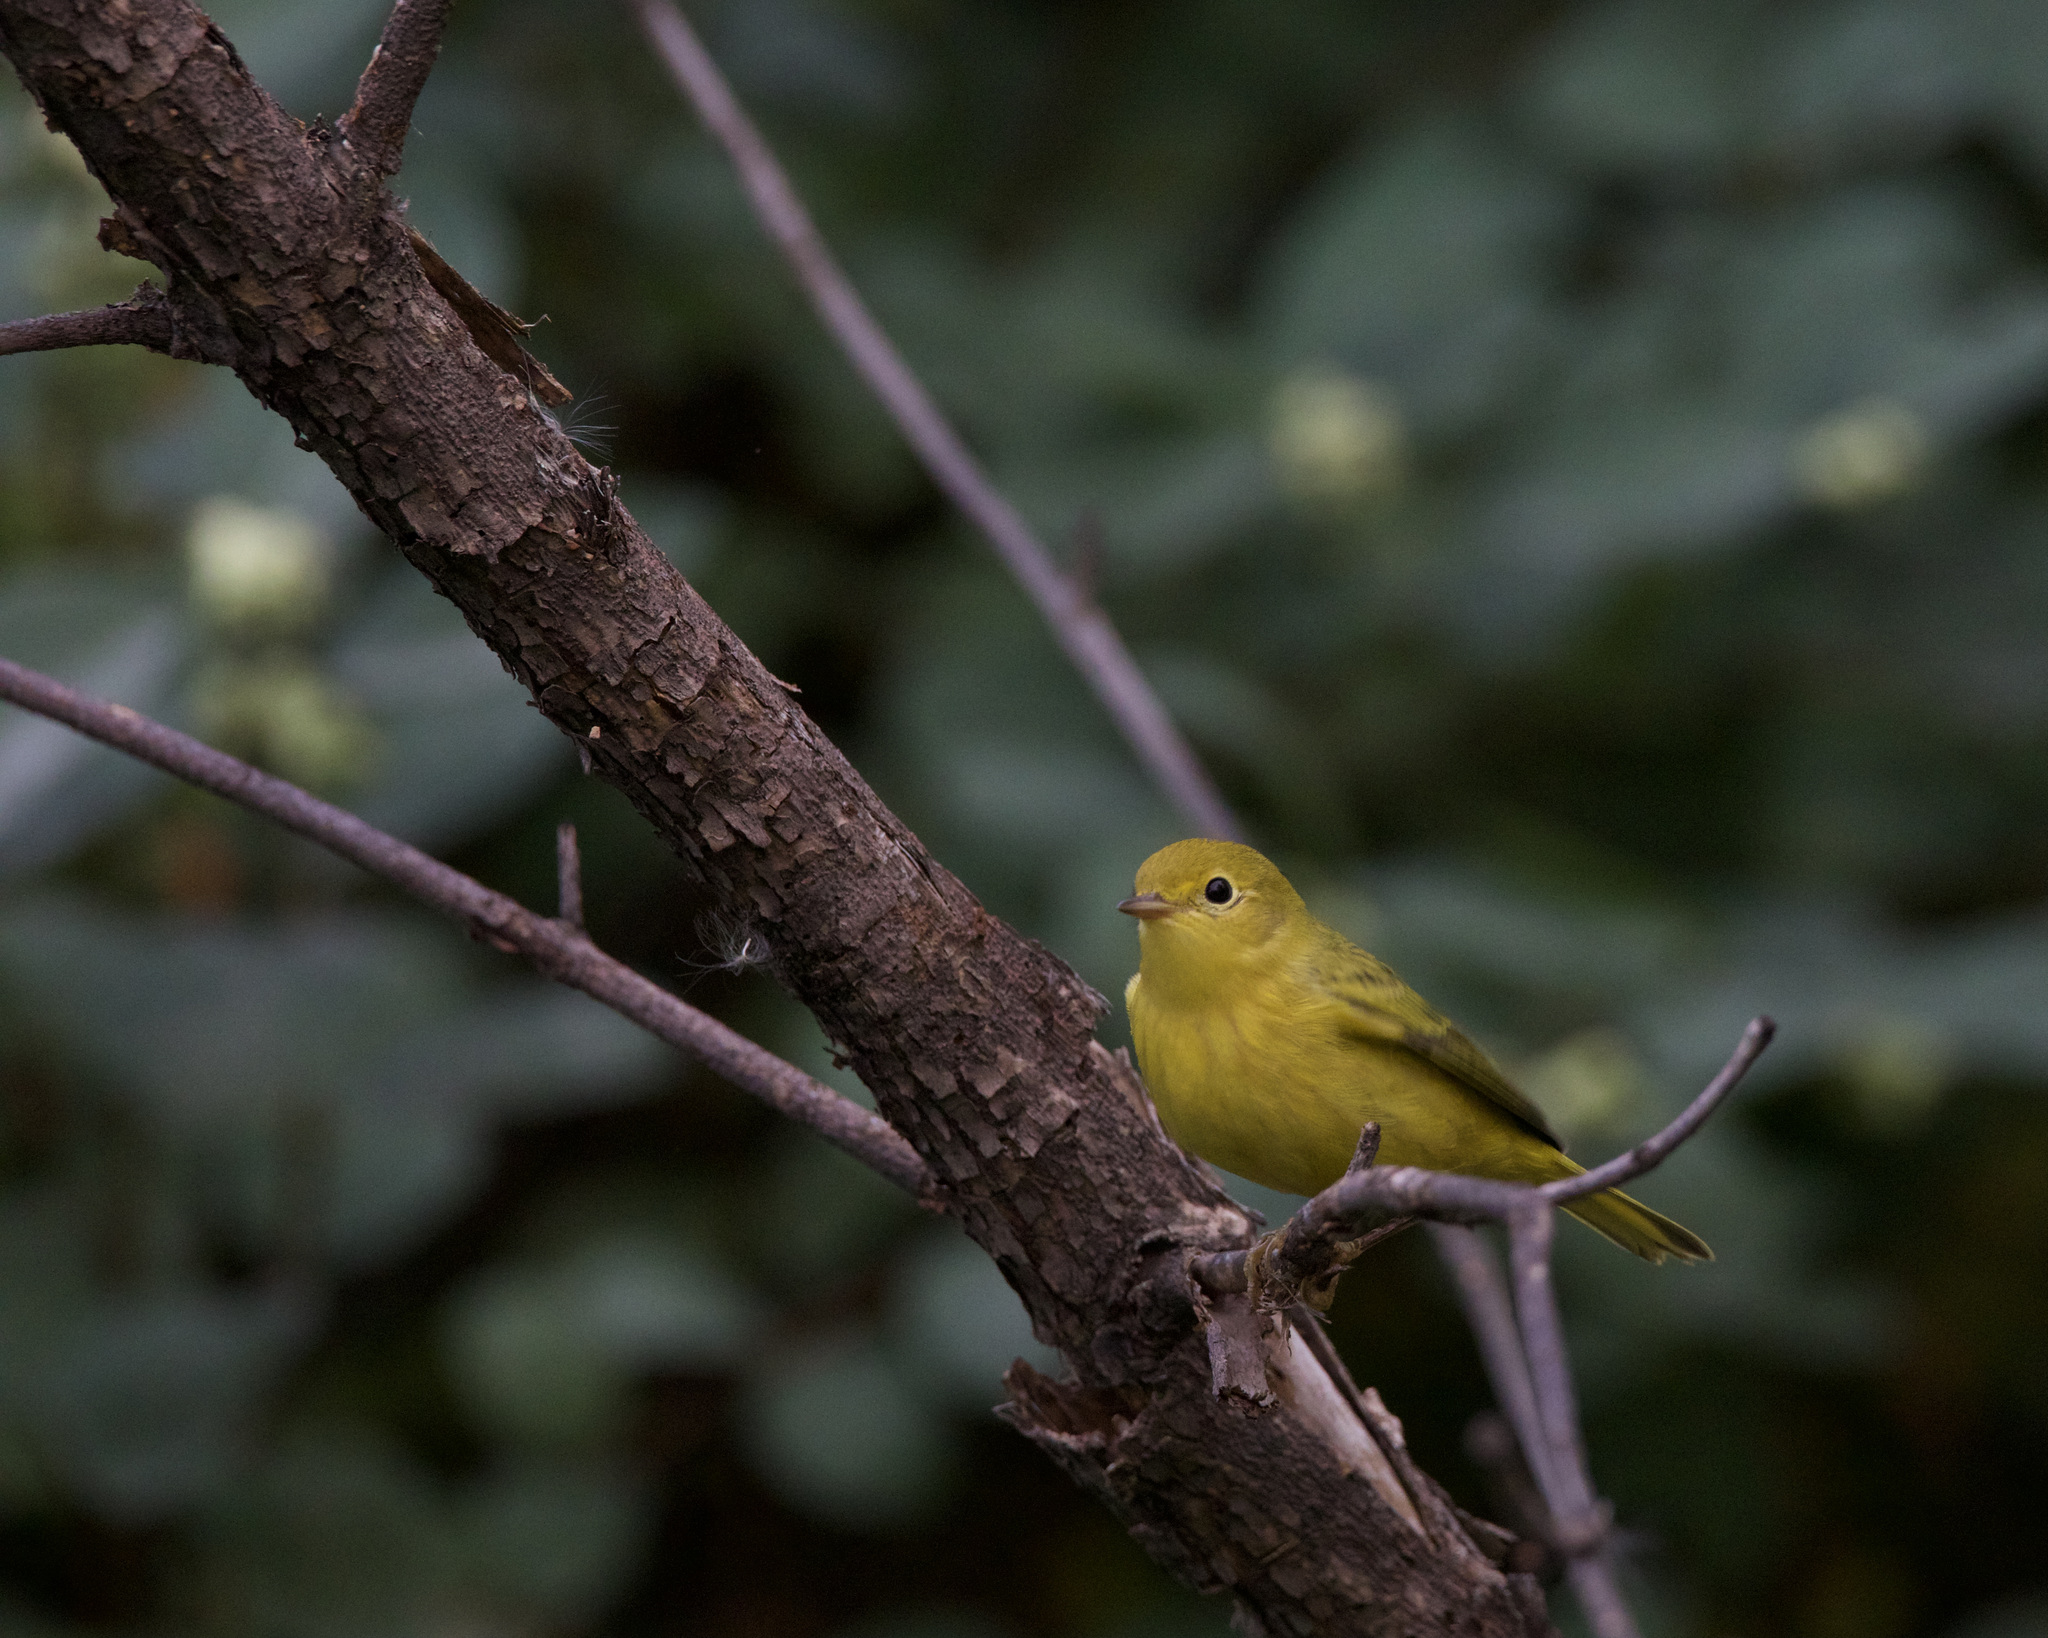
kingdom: Animalia
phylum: Chordata
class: Aves
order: Passeriformes
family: Parulidae
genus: Setophaga
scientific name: Setophaga petechia
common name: Yellow warbler
